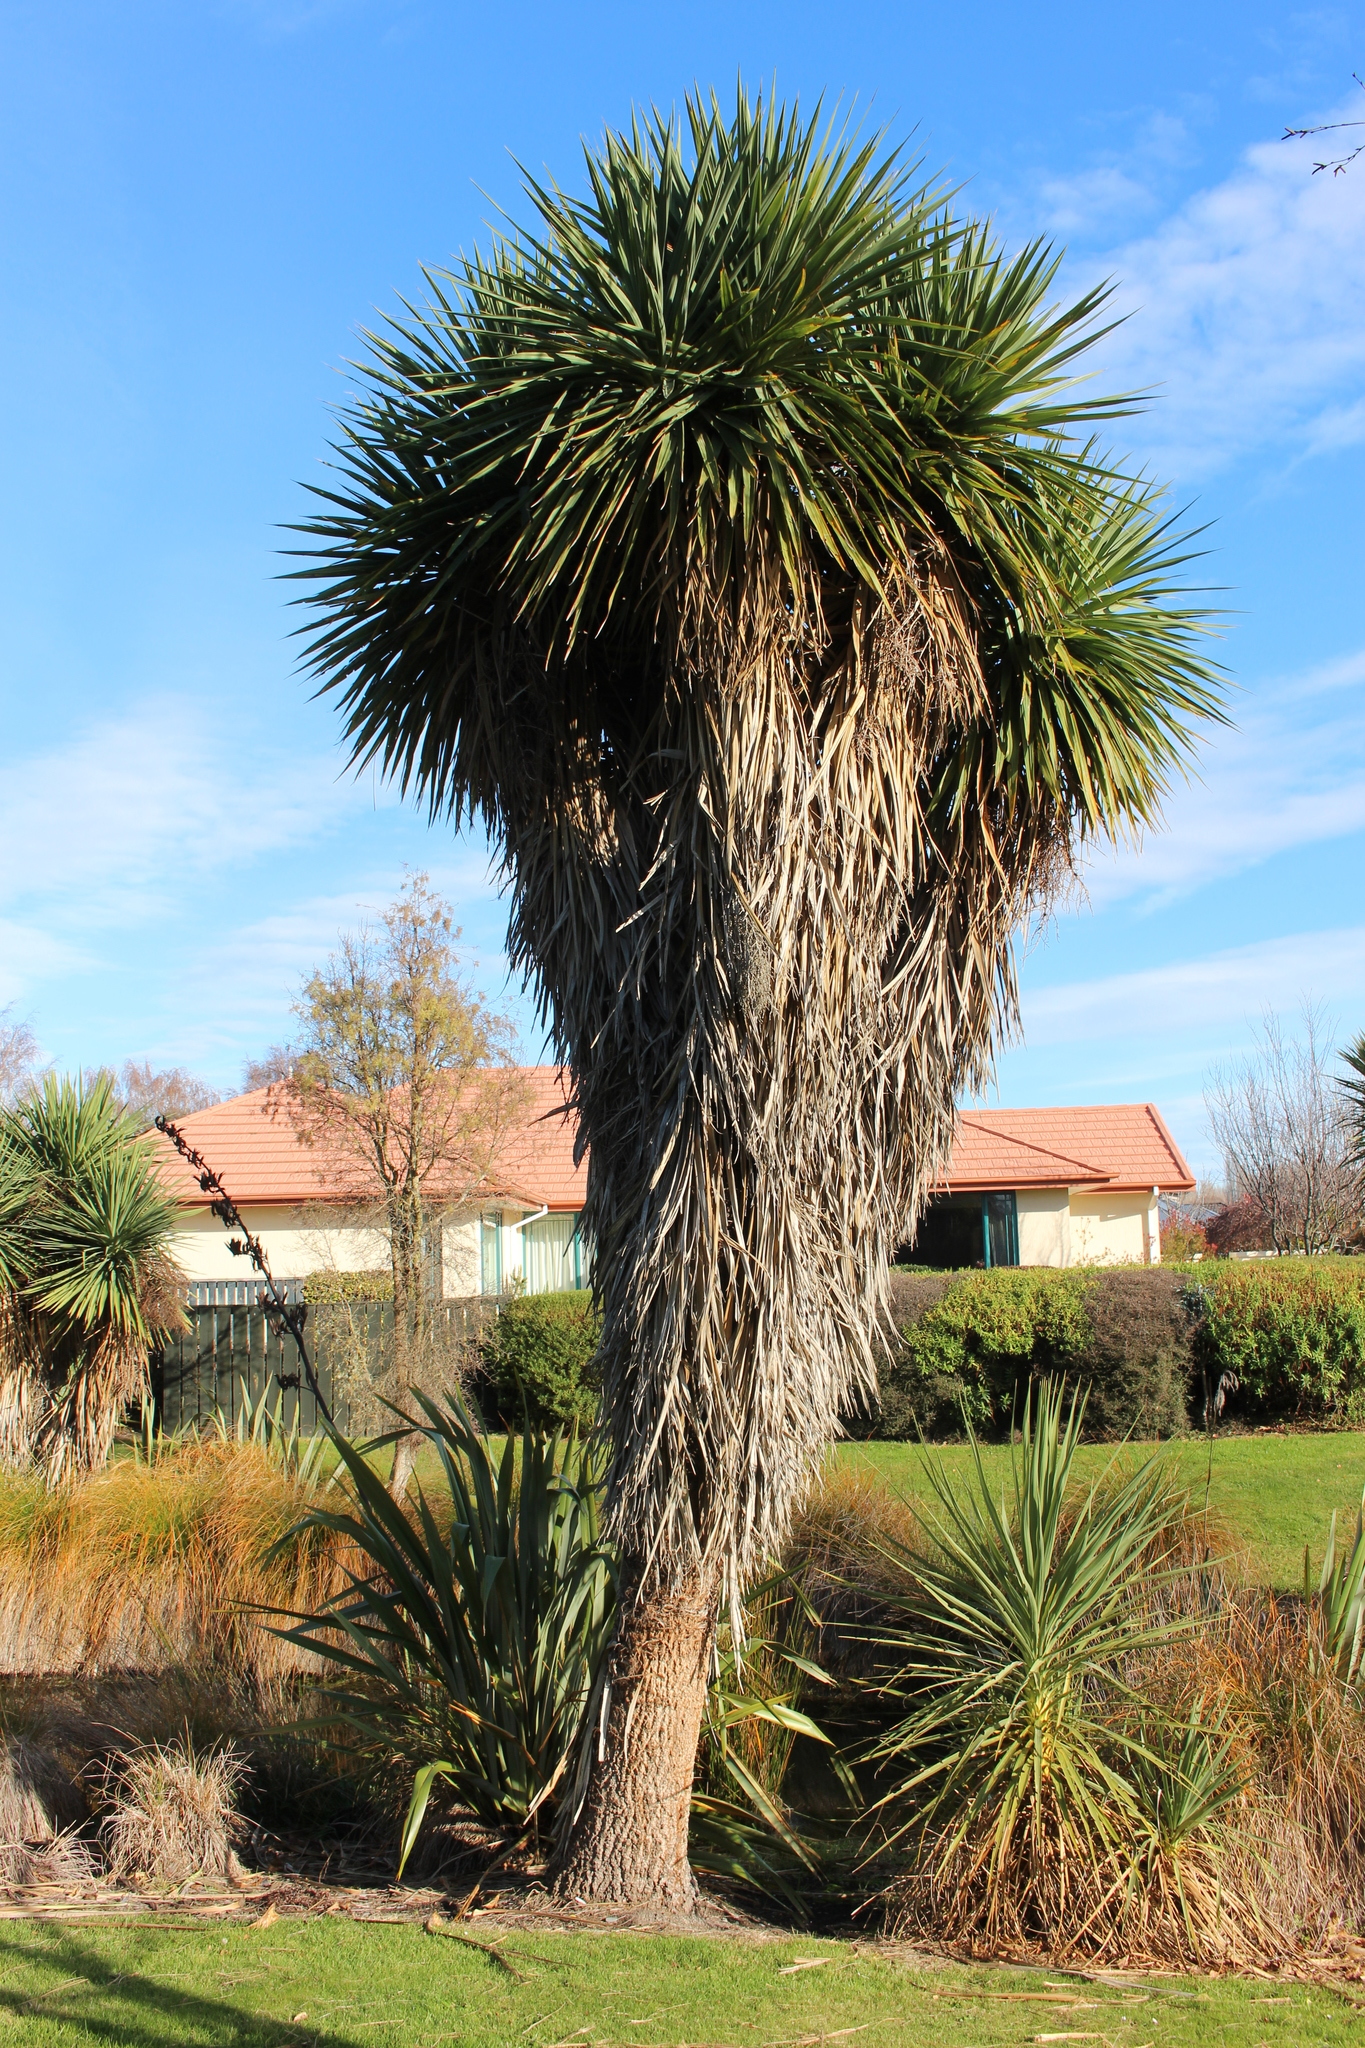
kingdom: Plantae
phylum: Tracheophyta
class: Liliopsida
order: Asparagales
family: Asparagaceae
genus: Cordyline
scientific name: Cordyline australis
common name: Cabbage-palm
